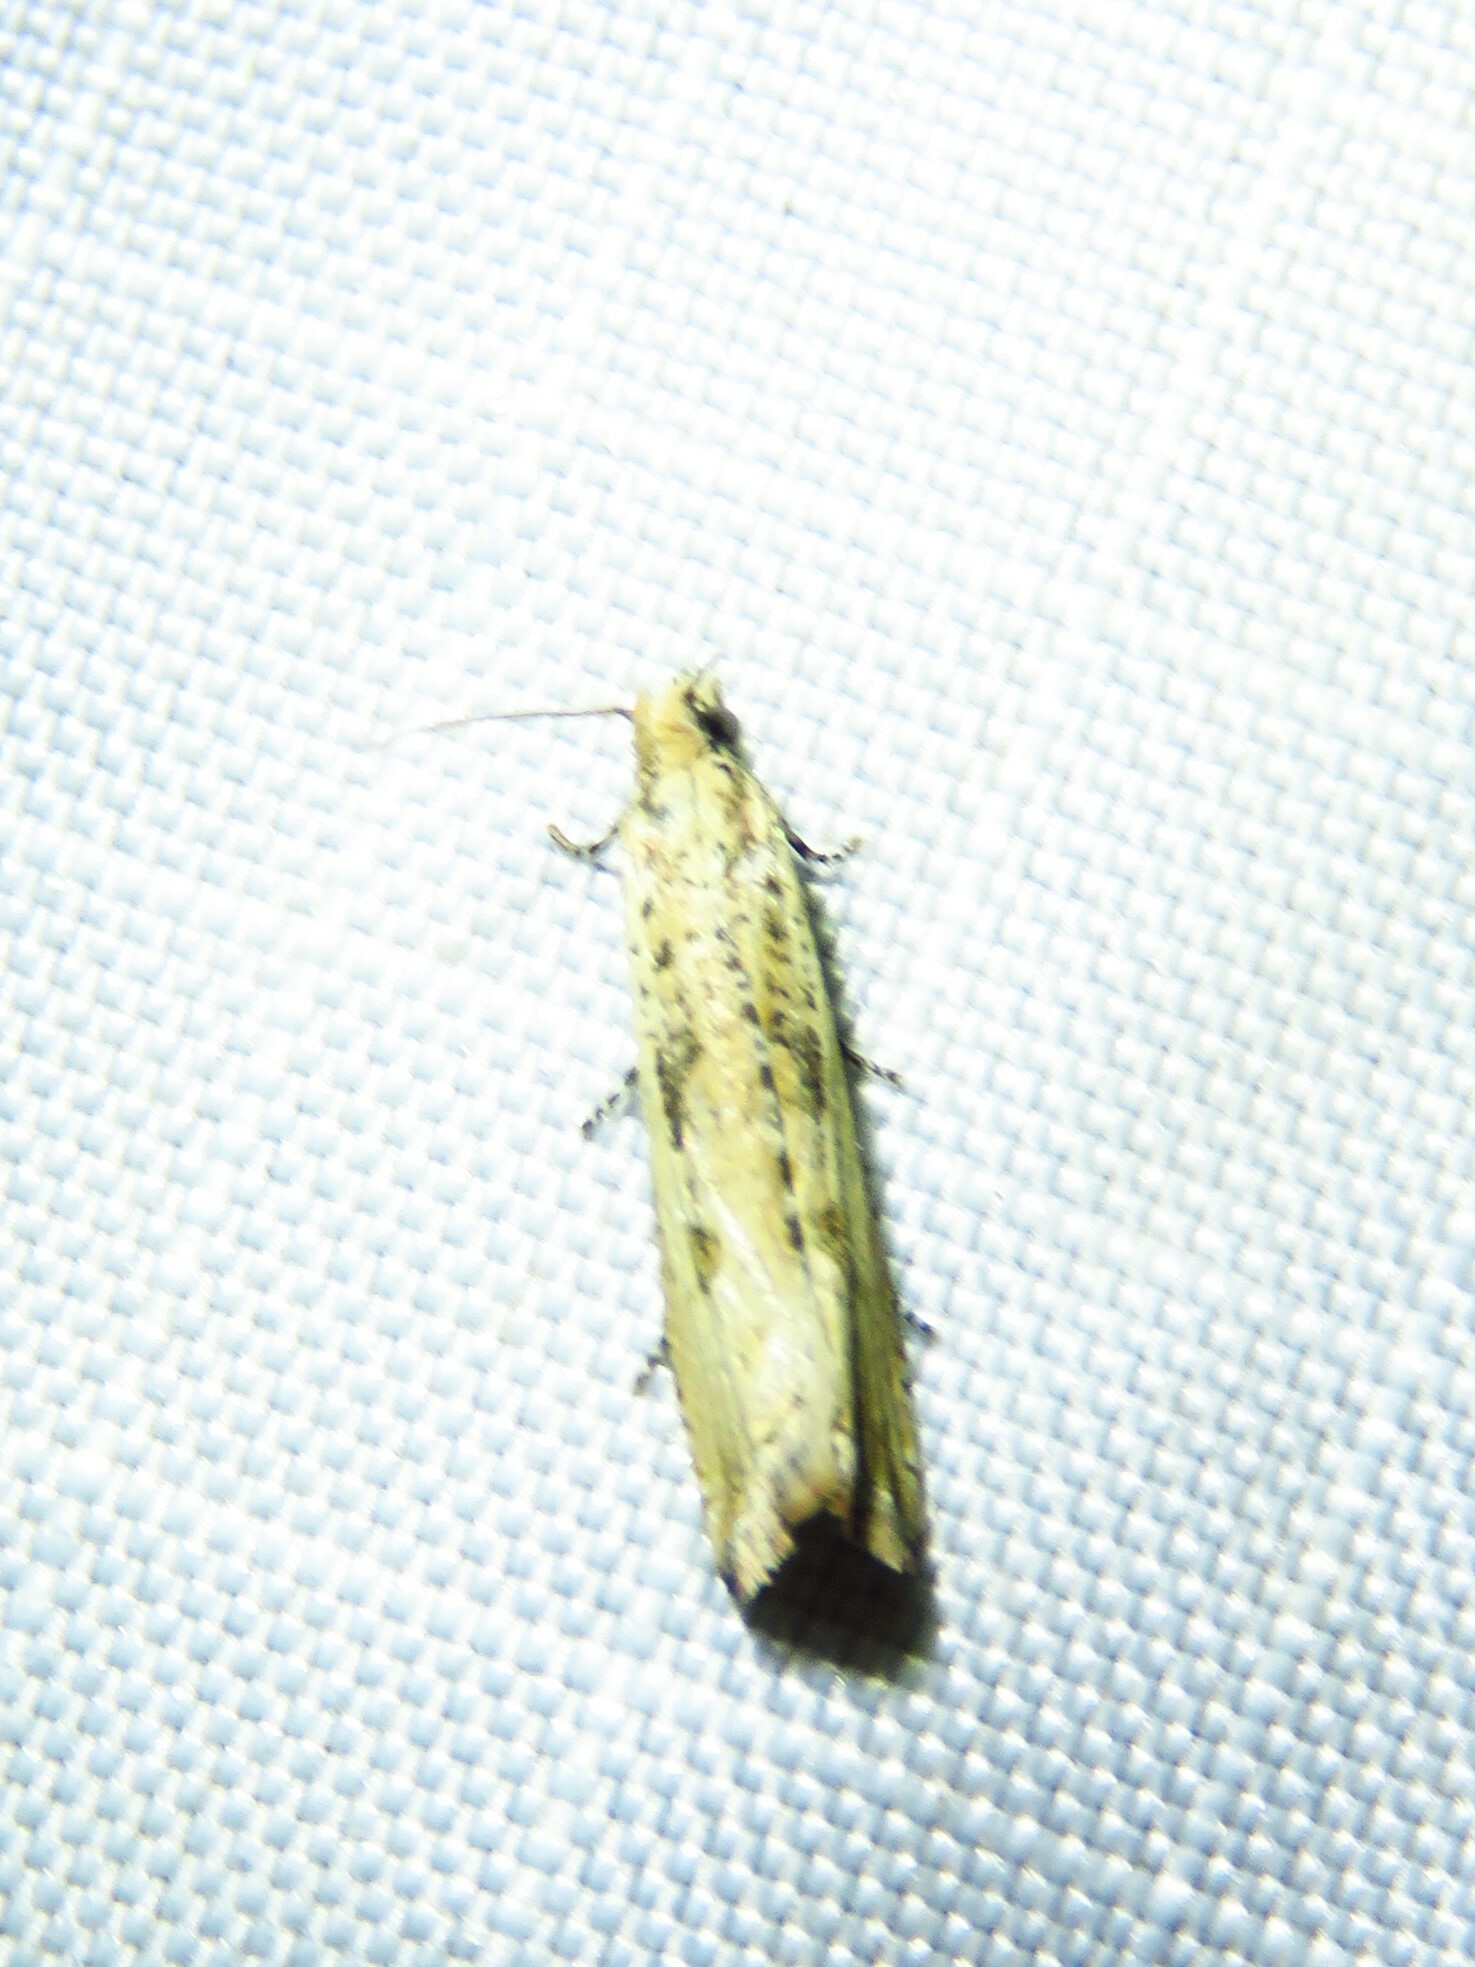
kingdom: Animalia
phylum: Arthropoda
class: Insecta
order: Lepidoptera
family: Tortricidae
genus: Bactra
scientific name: Bactra verutana
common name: Javelin moth
